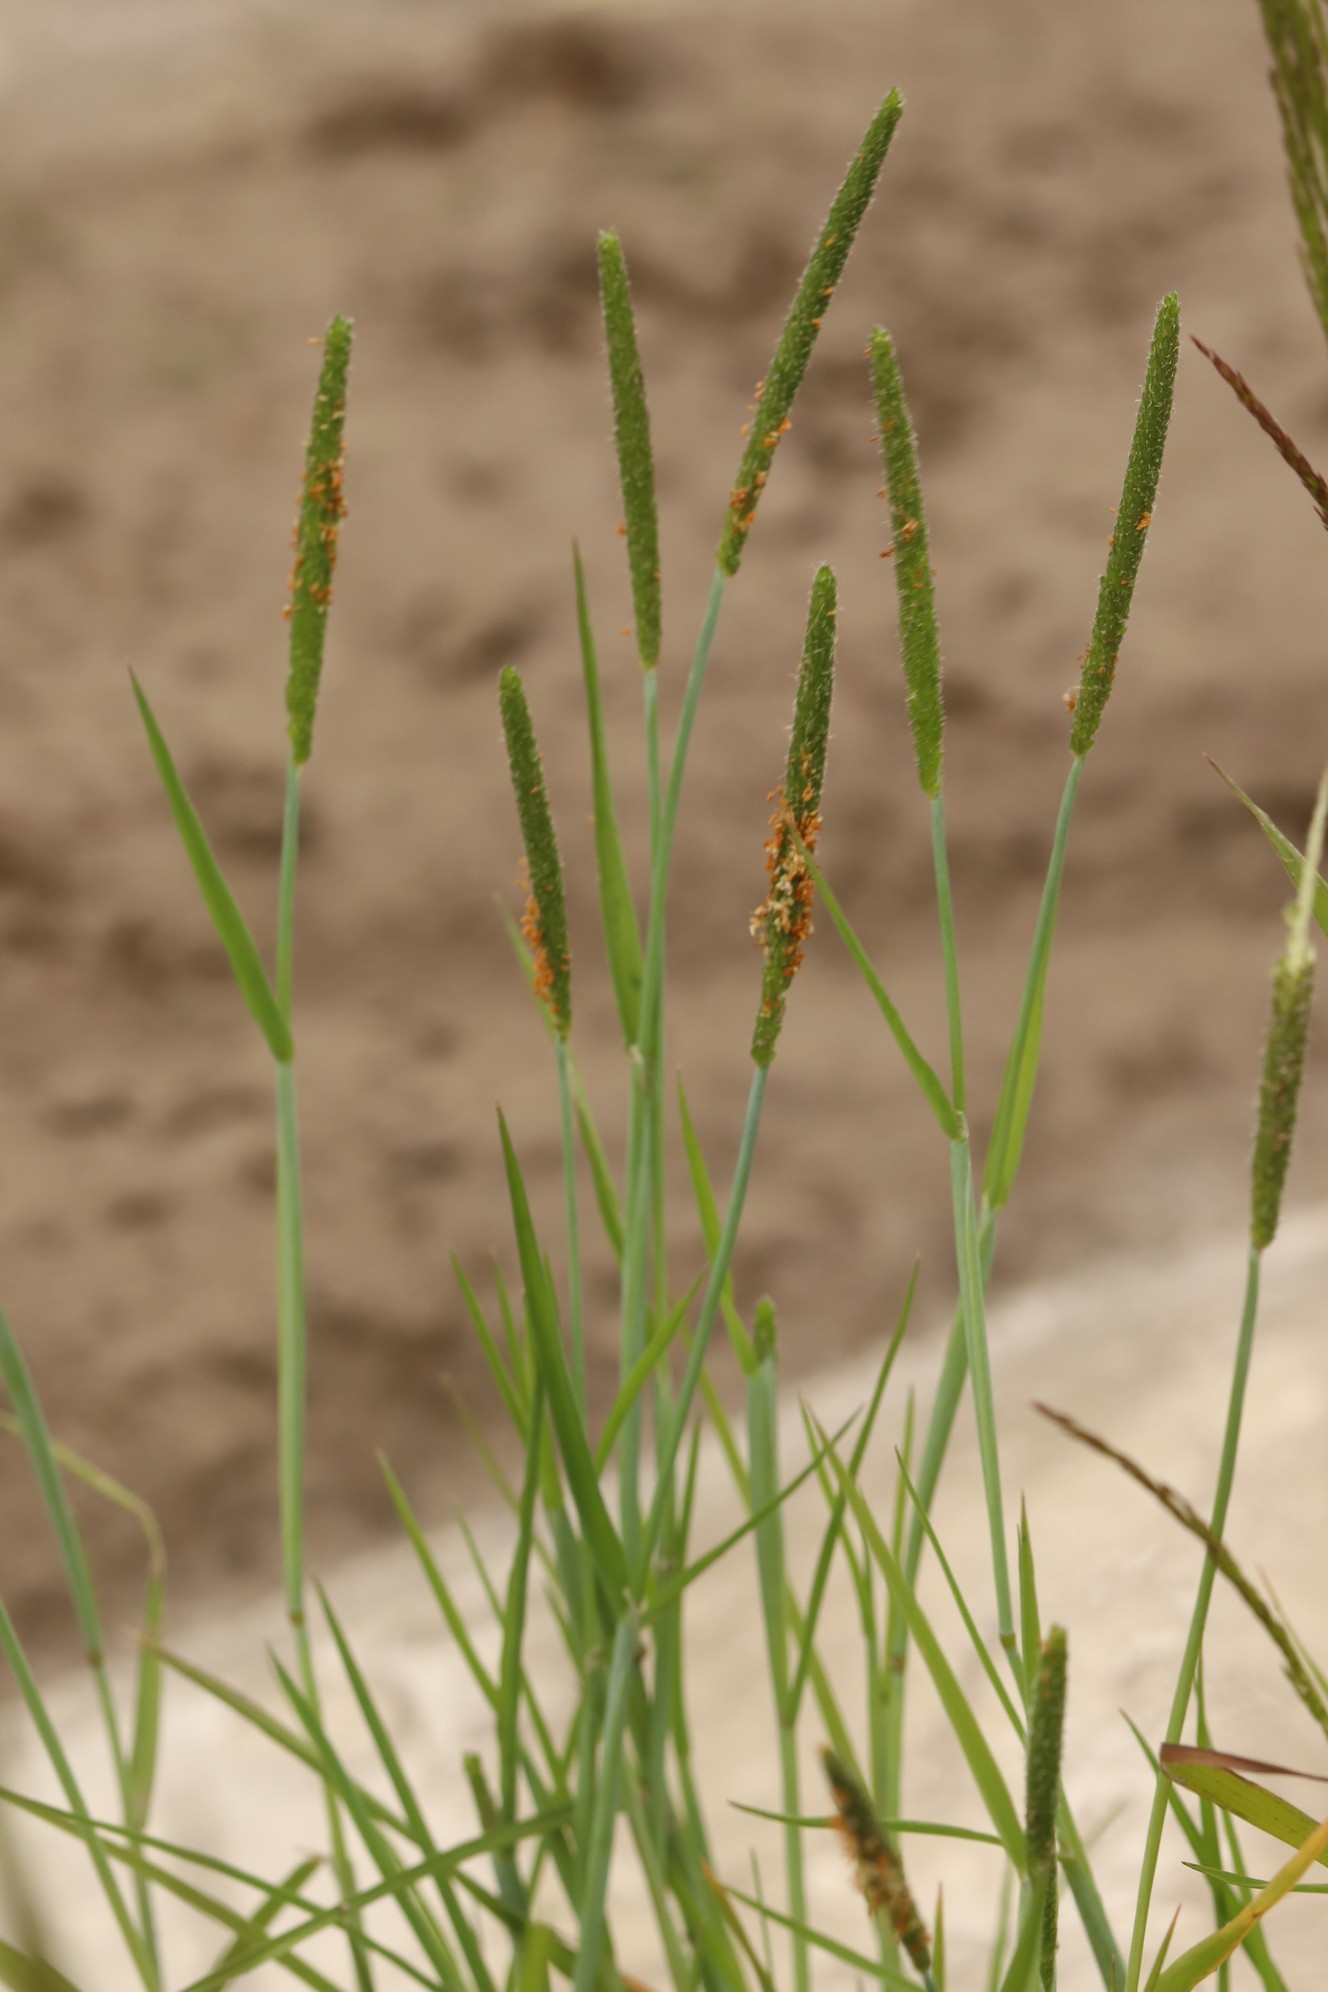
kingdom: Plantae
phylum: Tracheophyta
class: Liliopsida
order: Poales
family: Poaceae
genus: Alopecurus
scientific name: Alopecurus aequalis
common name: Orange foxtail
